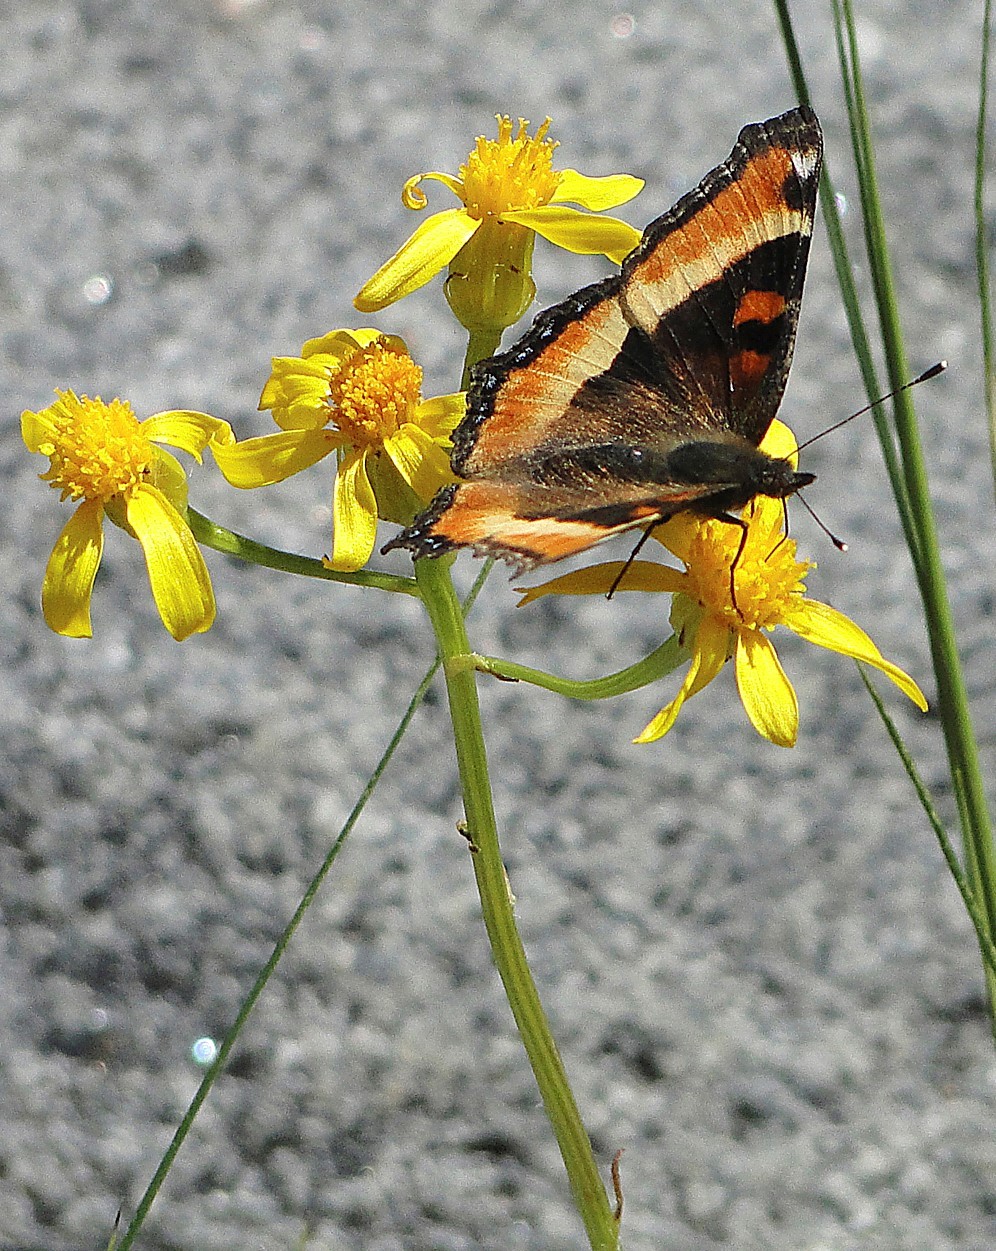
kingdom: Animalia
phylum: Arthropoda
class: Insecta
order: Lepidoptera
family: Nymphalidae
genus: Aglais
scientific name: Aglais milberti
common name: Milbert's tortoiseshell
